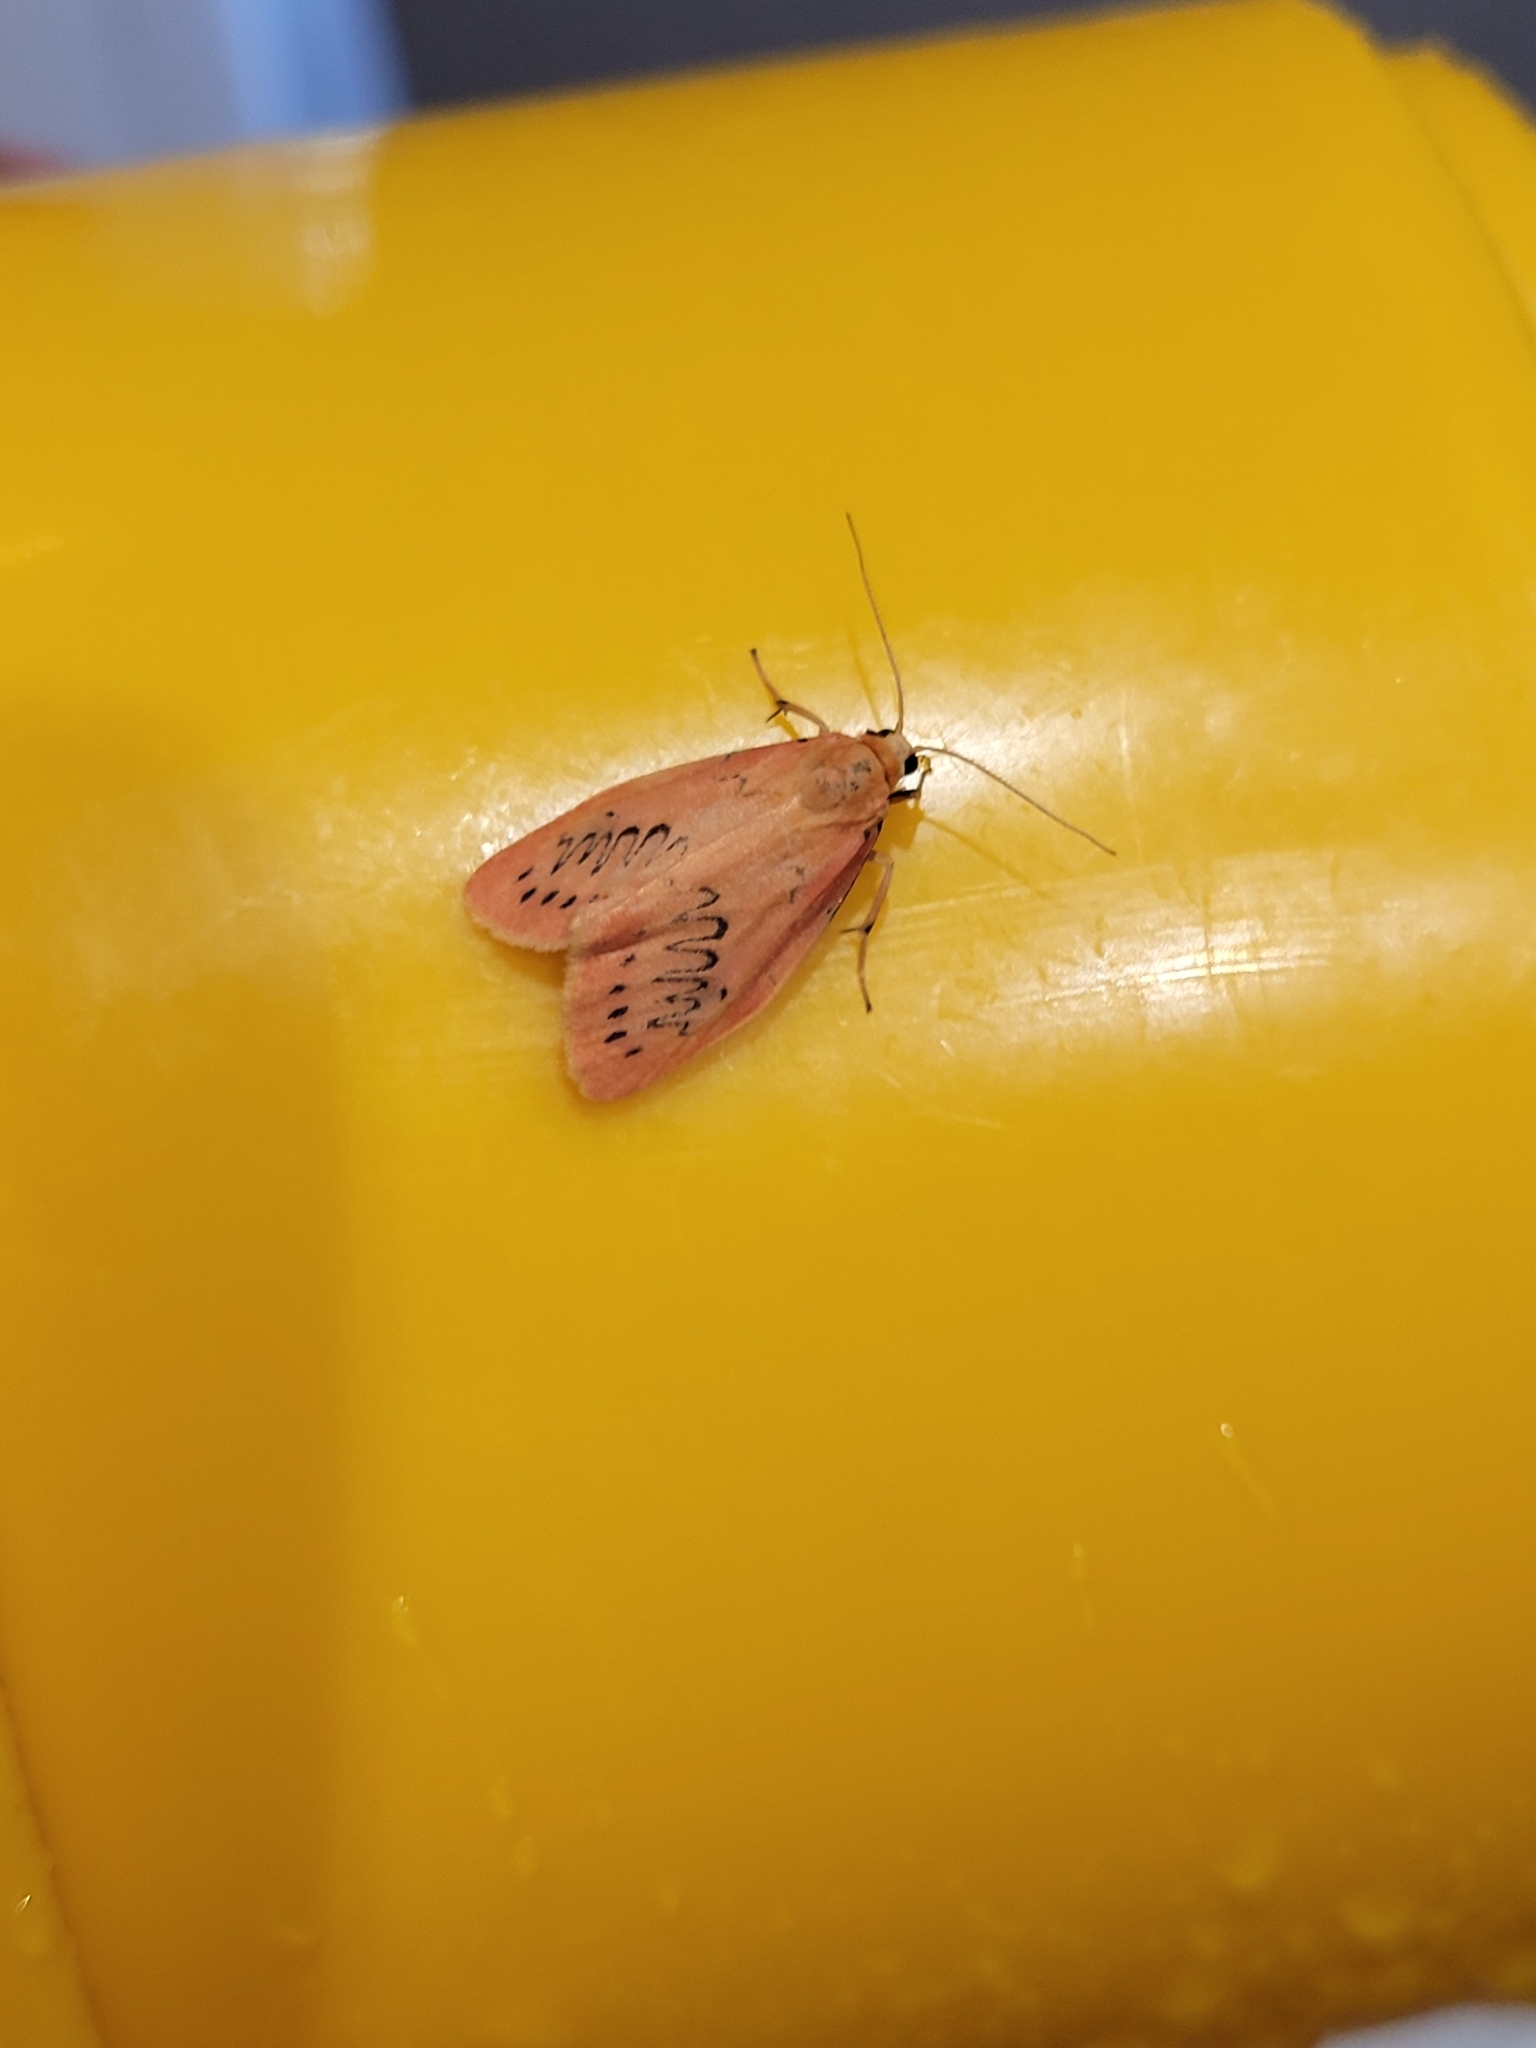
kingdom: Animalia
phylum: Arthropoda
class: Insecta
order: Lepidoptera
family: Erebidae
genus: Miltochrista
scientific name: Miltochrista miniata
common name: Rosy footman
